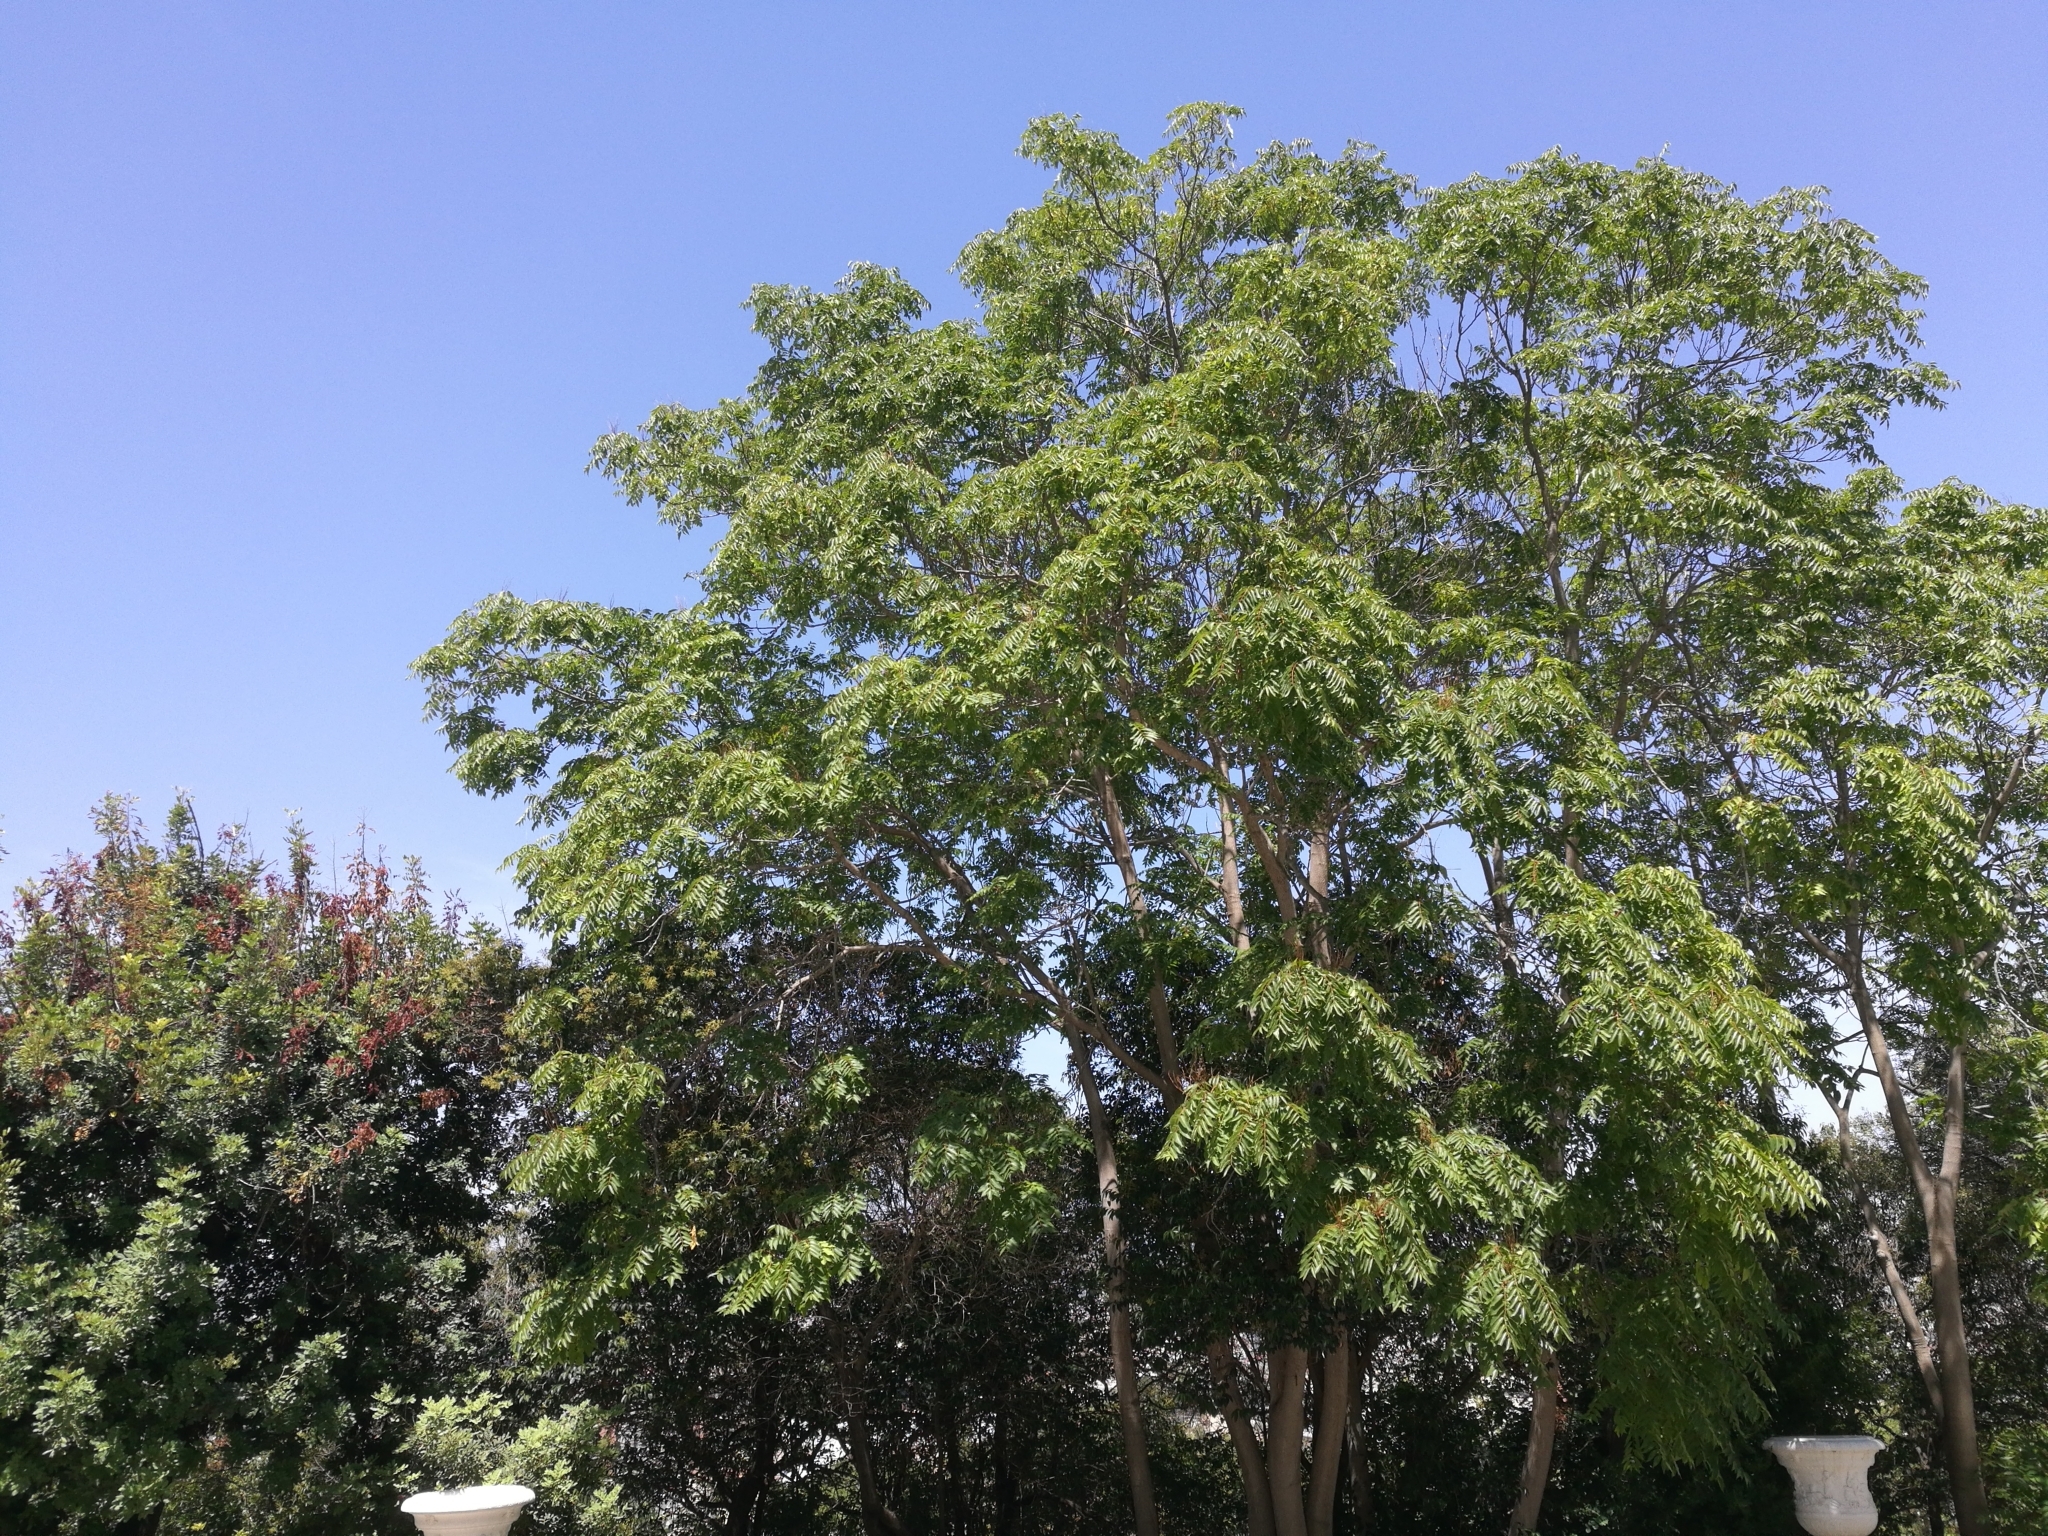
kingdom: Plantae
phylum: Tracheophyta
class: Magnoliopsida
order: Sapindales
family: Simaroubaceae
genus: Ailanthus
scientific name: Ailanthus altissima
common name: Tree-of-heaven
